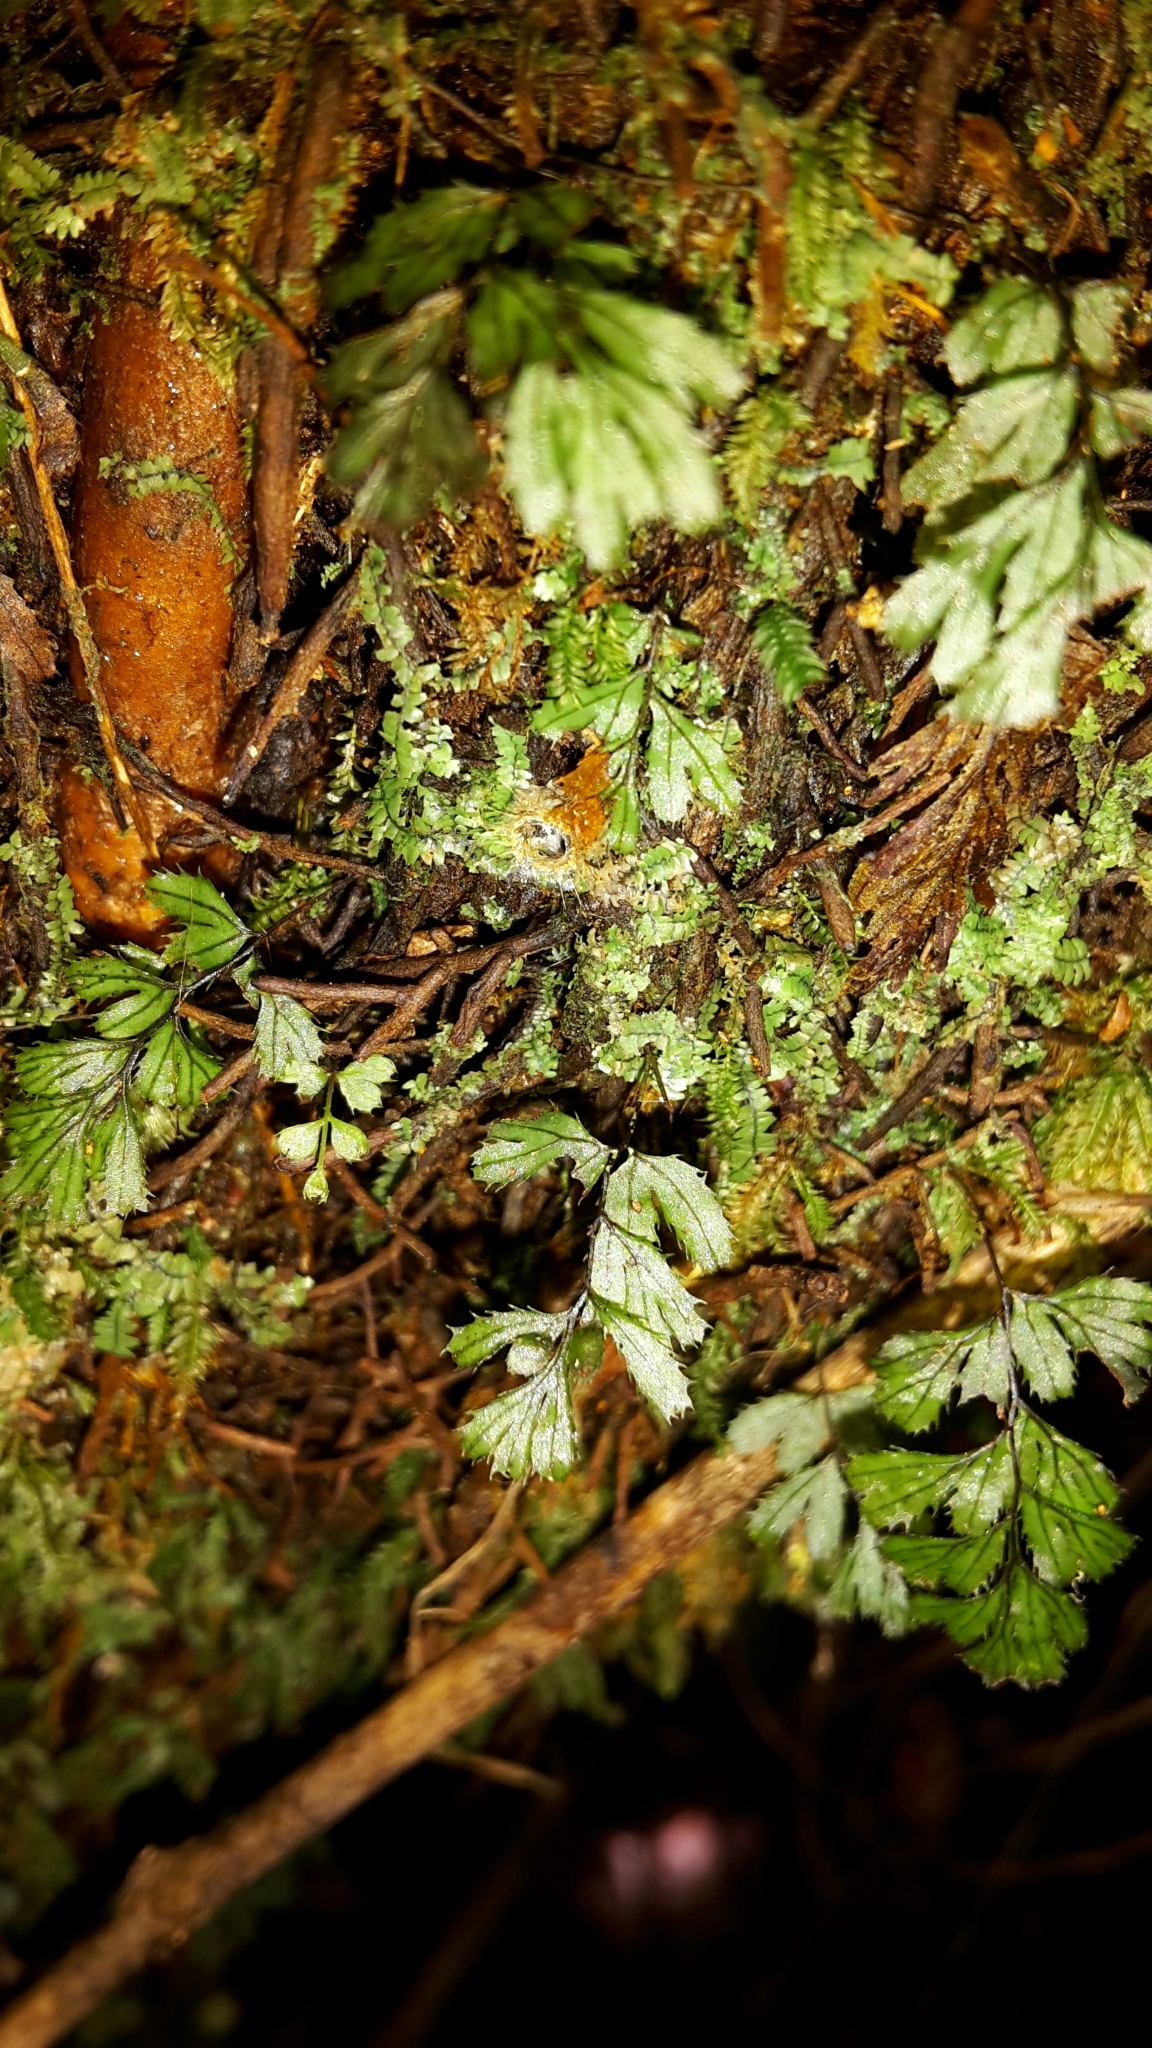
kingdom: Plantae
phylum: Tracheophyta
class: Polypodiopsida
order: Hymenophyllales
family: Hymenophyllaceae
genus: Hymenophyllum
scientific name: Hymenophyllum revolutum
